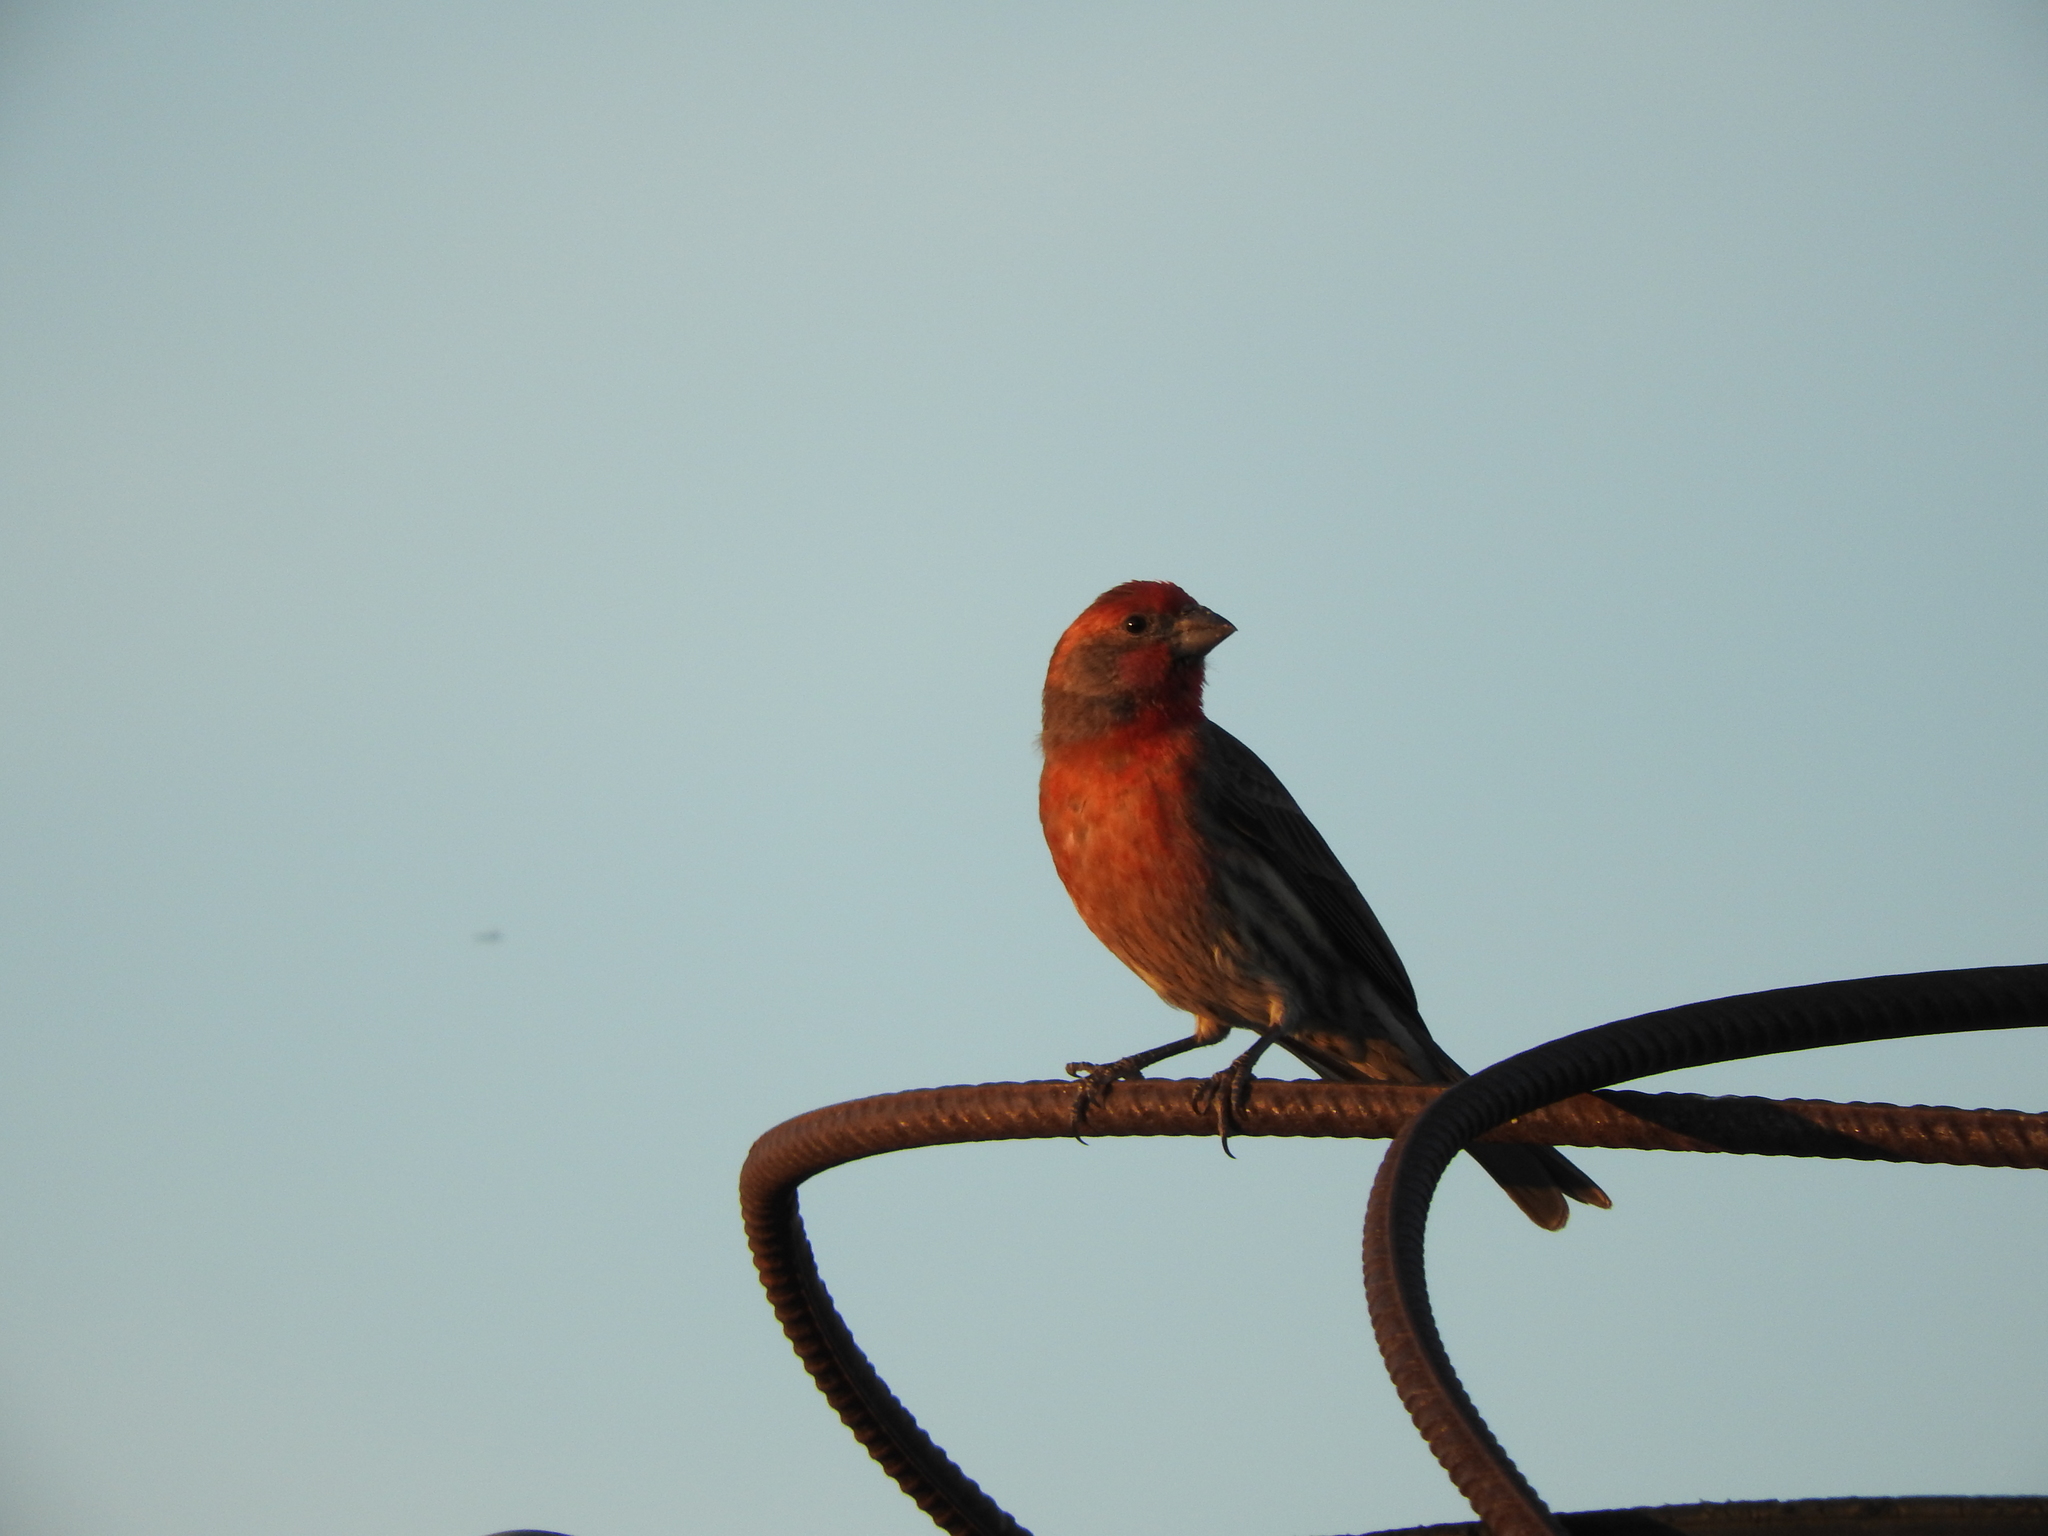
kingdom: Animalia
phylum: Chordata
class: Aves
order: Passeriformes
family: Fringillidae
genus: Haemorhous
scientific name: Haemorhous mexicanus
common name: House finch
